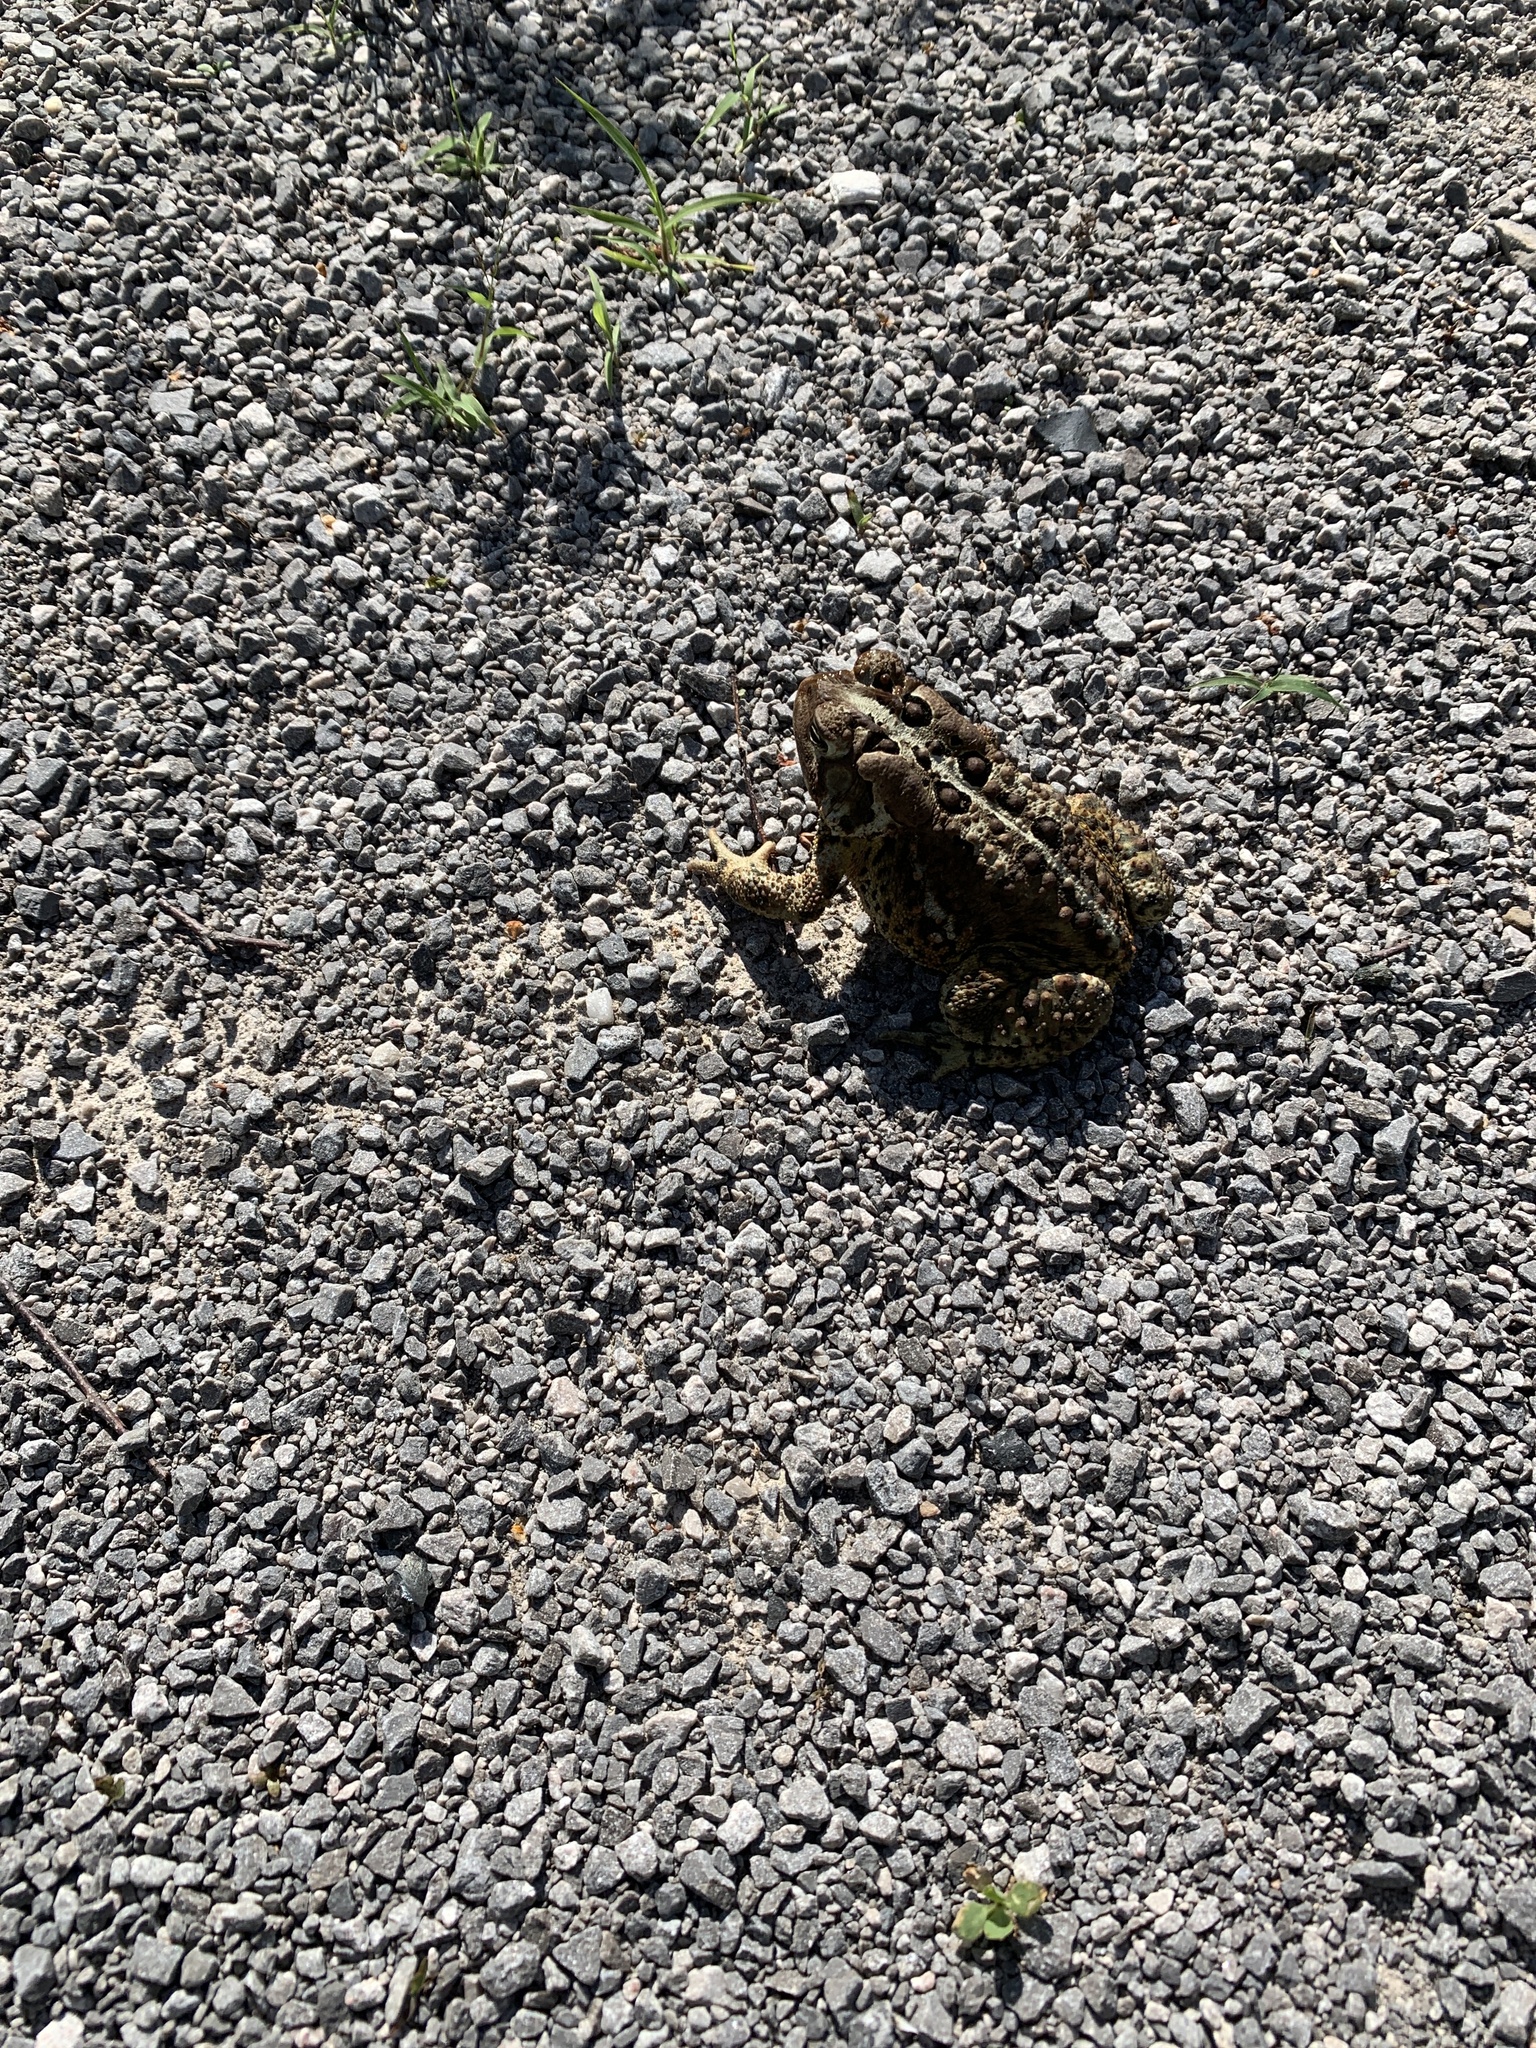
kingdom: Animalia
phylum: Chordata
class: Amphibia
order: Anura
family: Bufonidae
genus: Anaxyrus
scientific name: Anaxyrus americanus
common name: American toad
